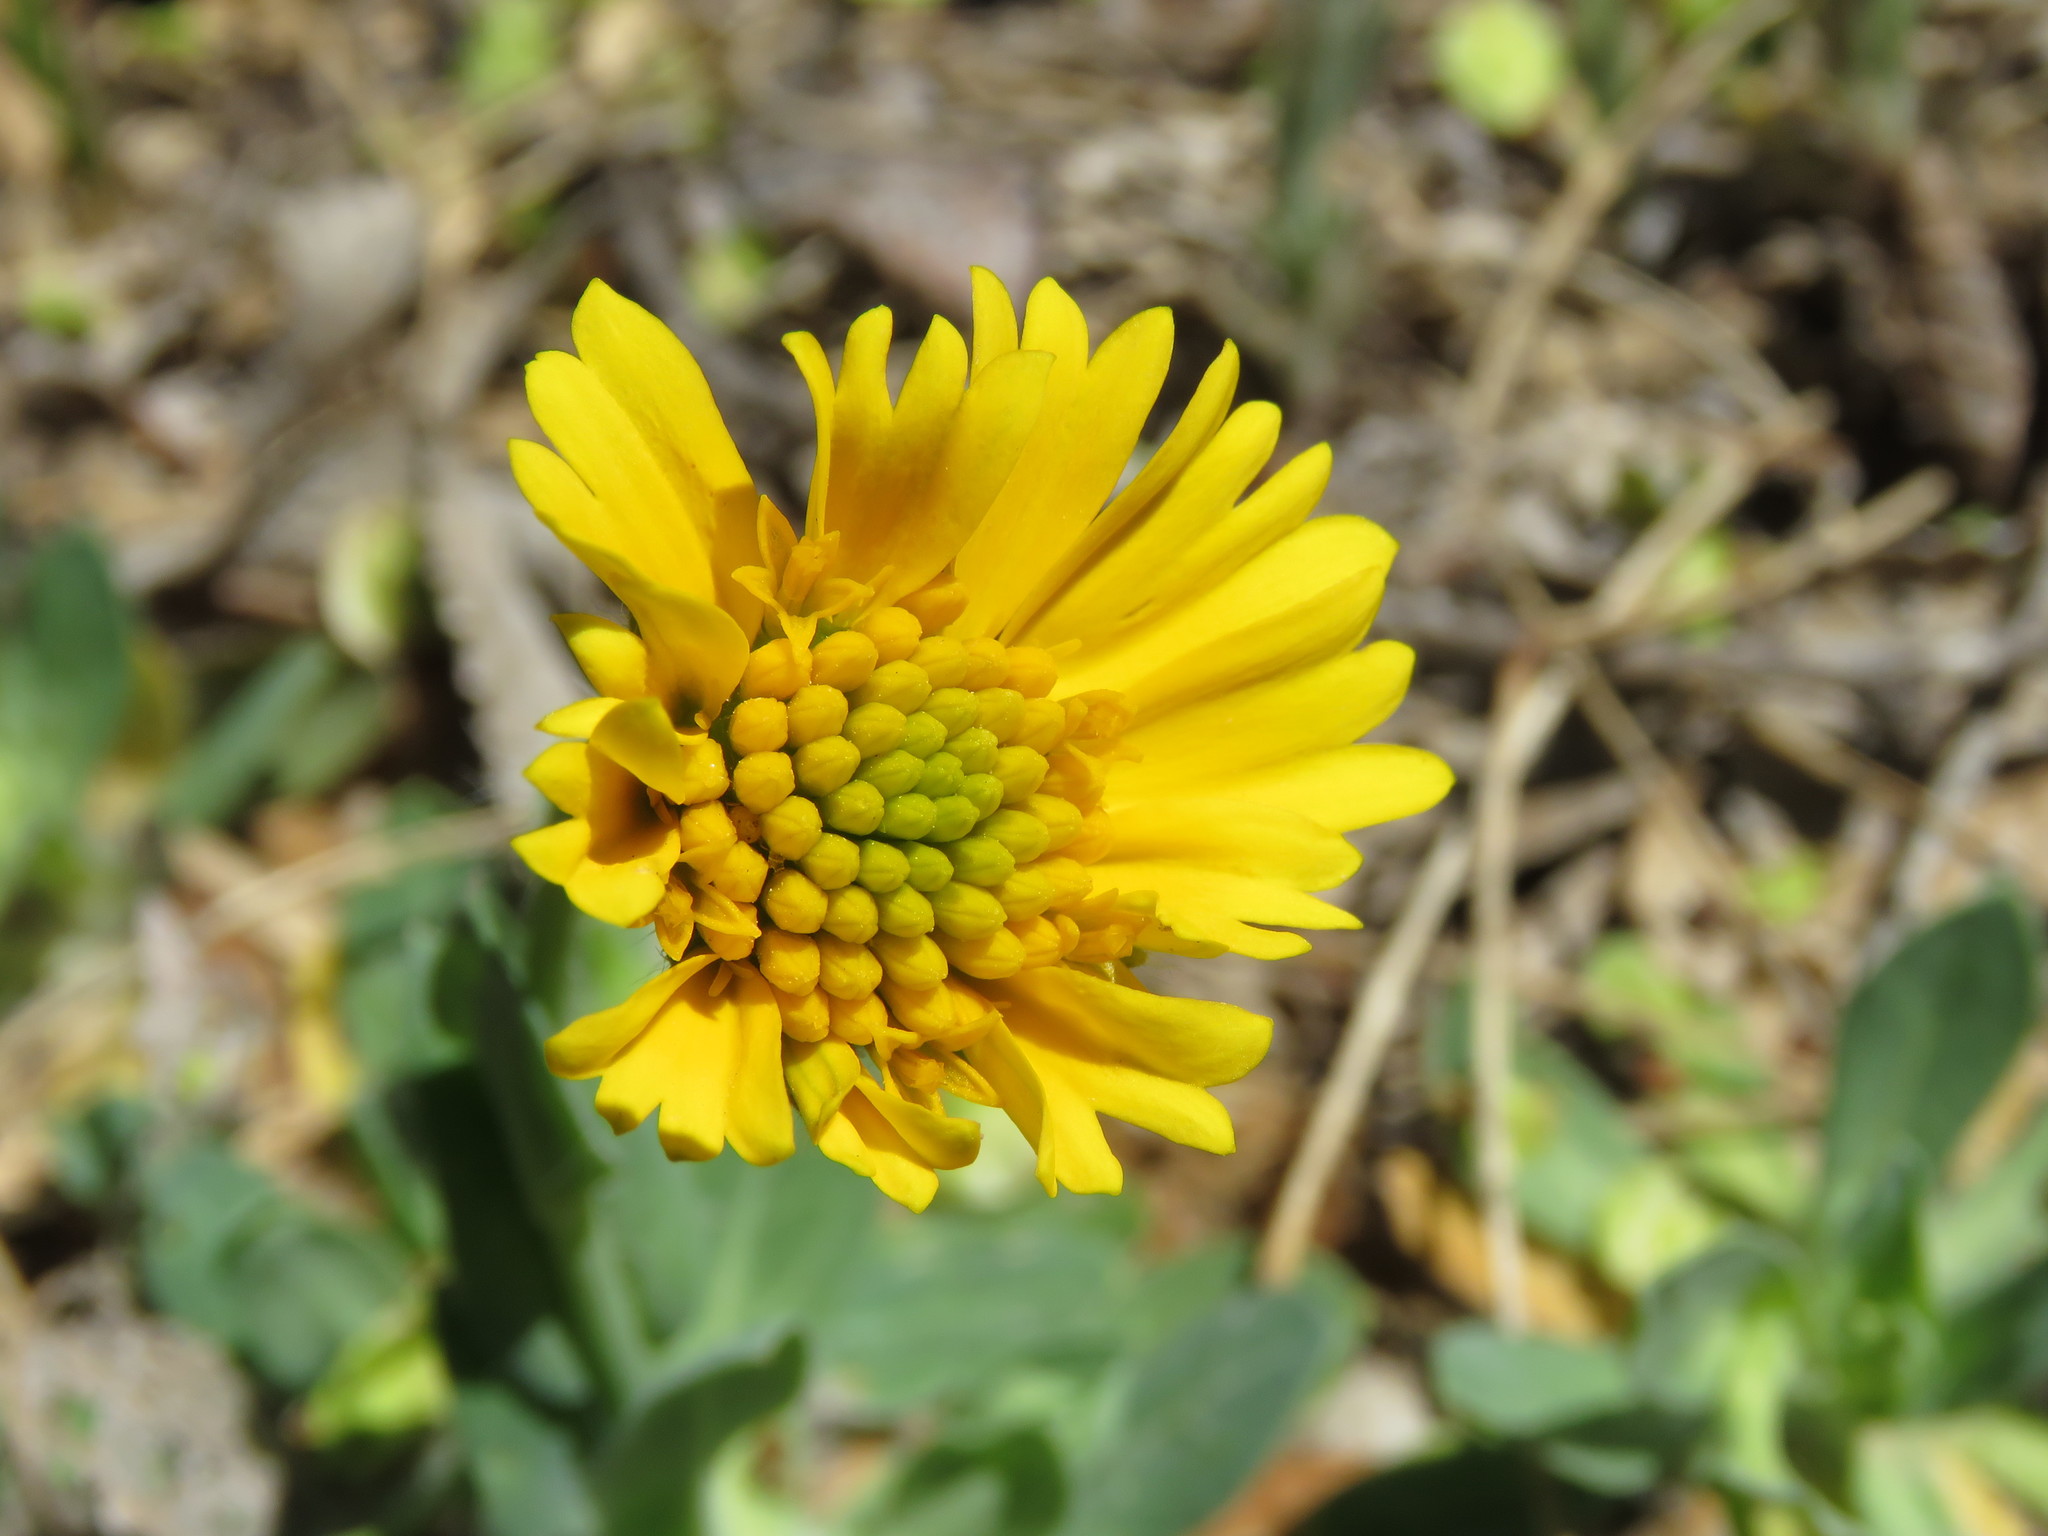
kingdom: Plantae
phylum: Tracheophyta
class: Magnoliopsida
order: Asterales
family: Asteraceae
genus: Amblyolepis
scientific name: Amblyolepis setigera
